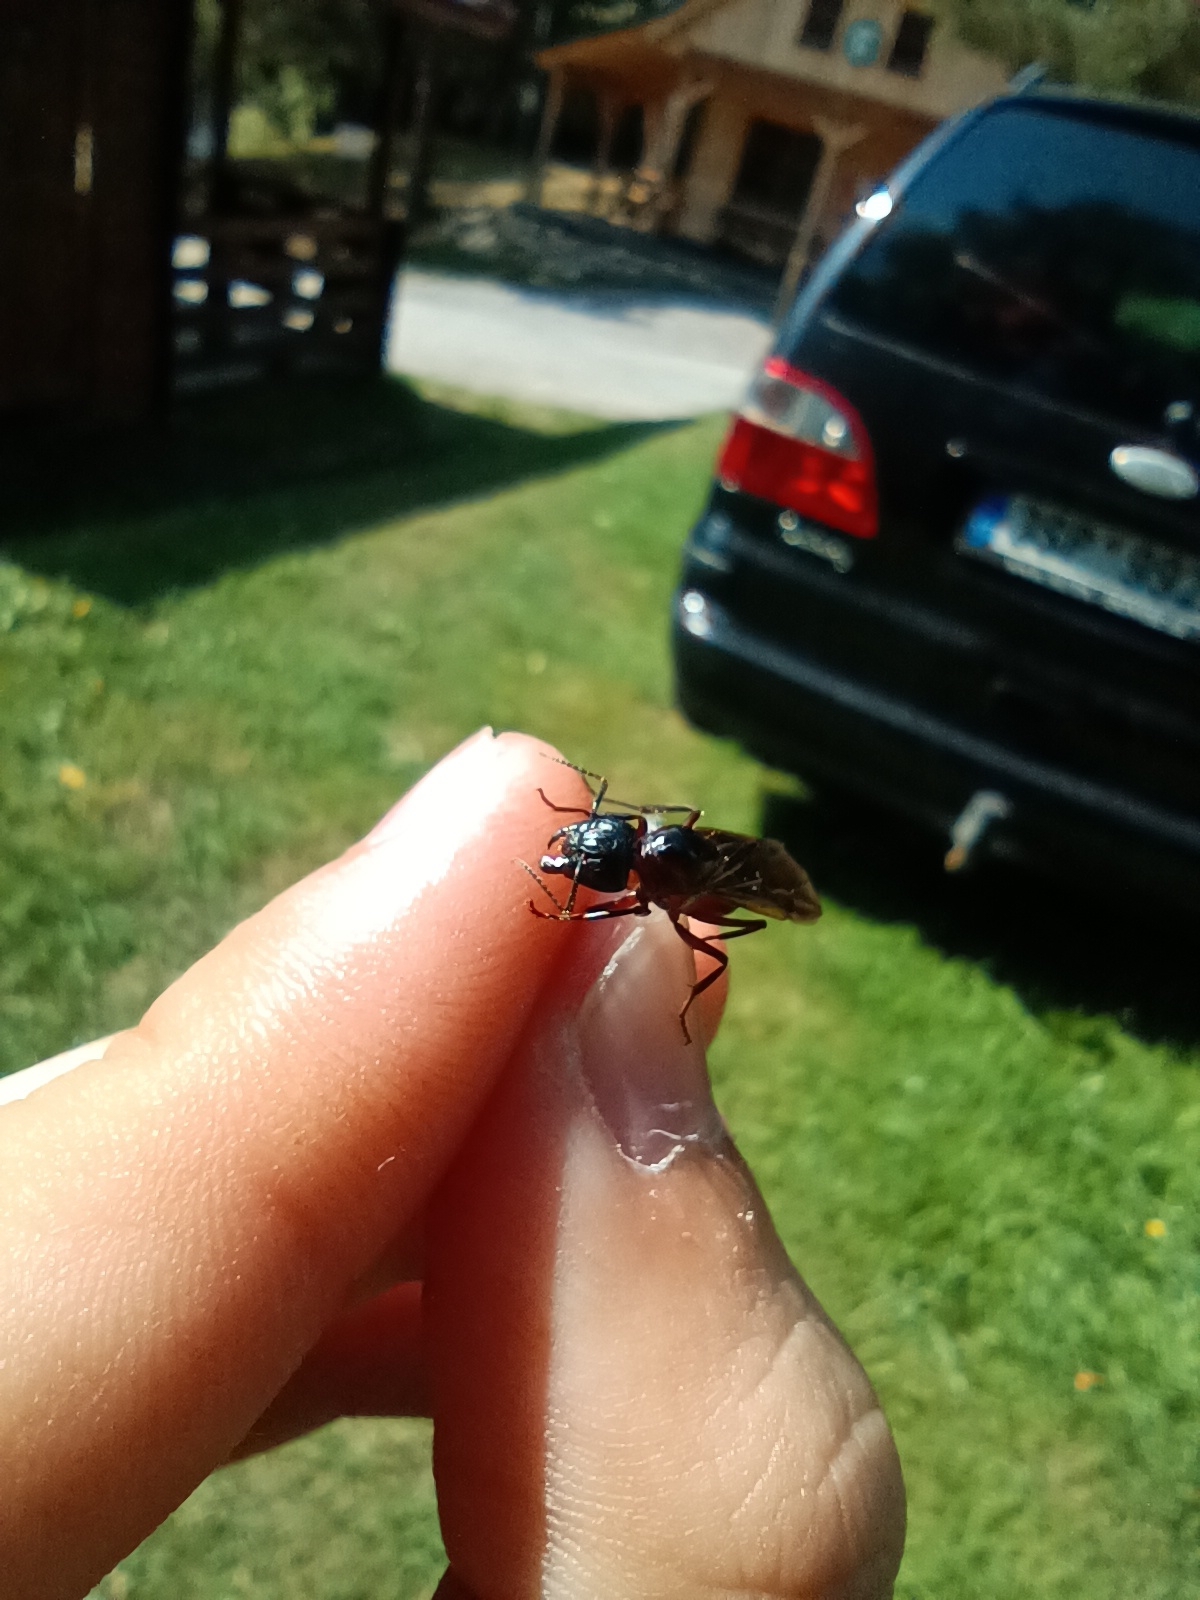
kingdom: Animalia
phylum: Arthropoda
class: Insecta
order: Hymenoptera
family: Formicidae
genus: Camponotus
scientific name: Camponotus ligniperdus
